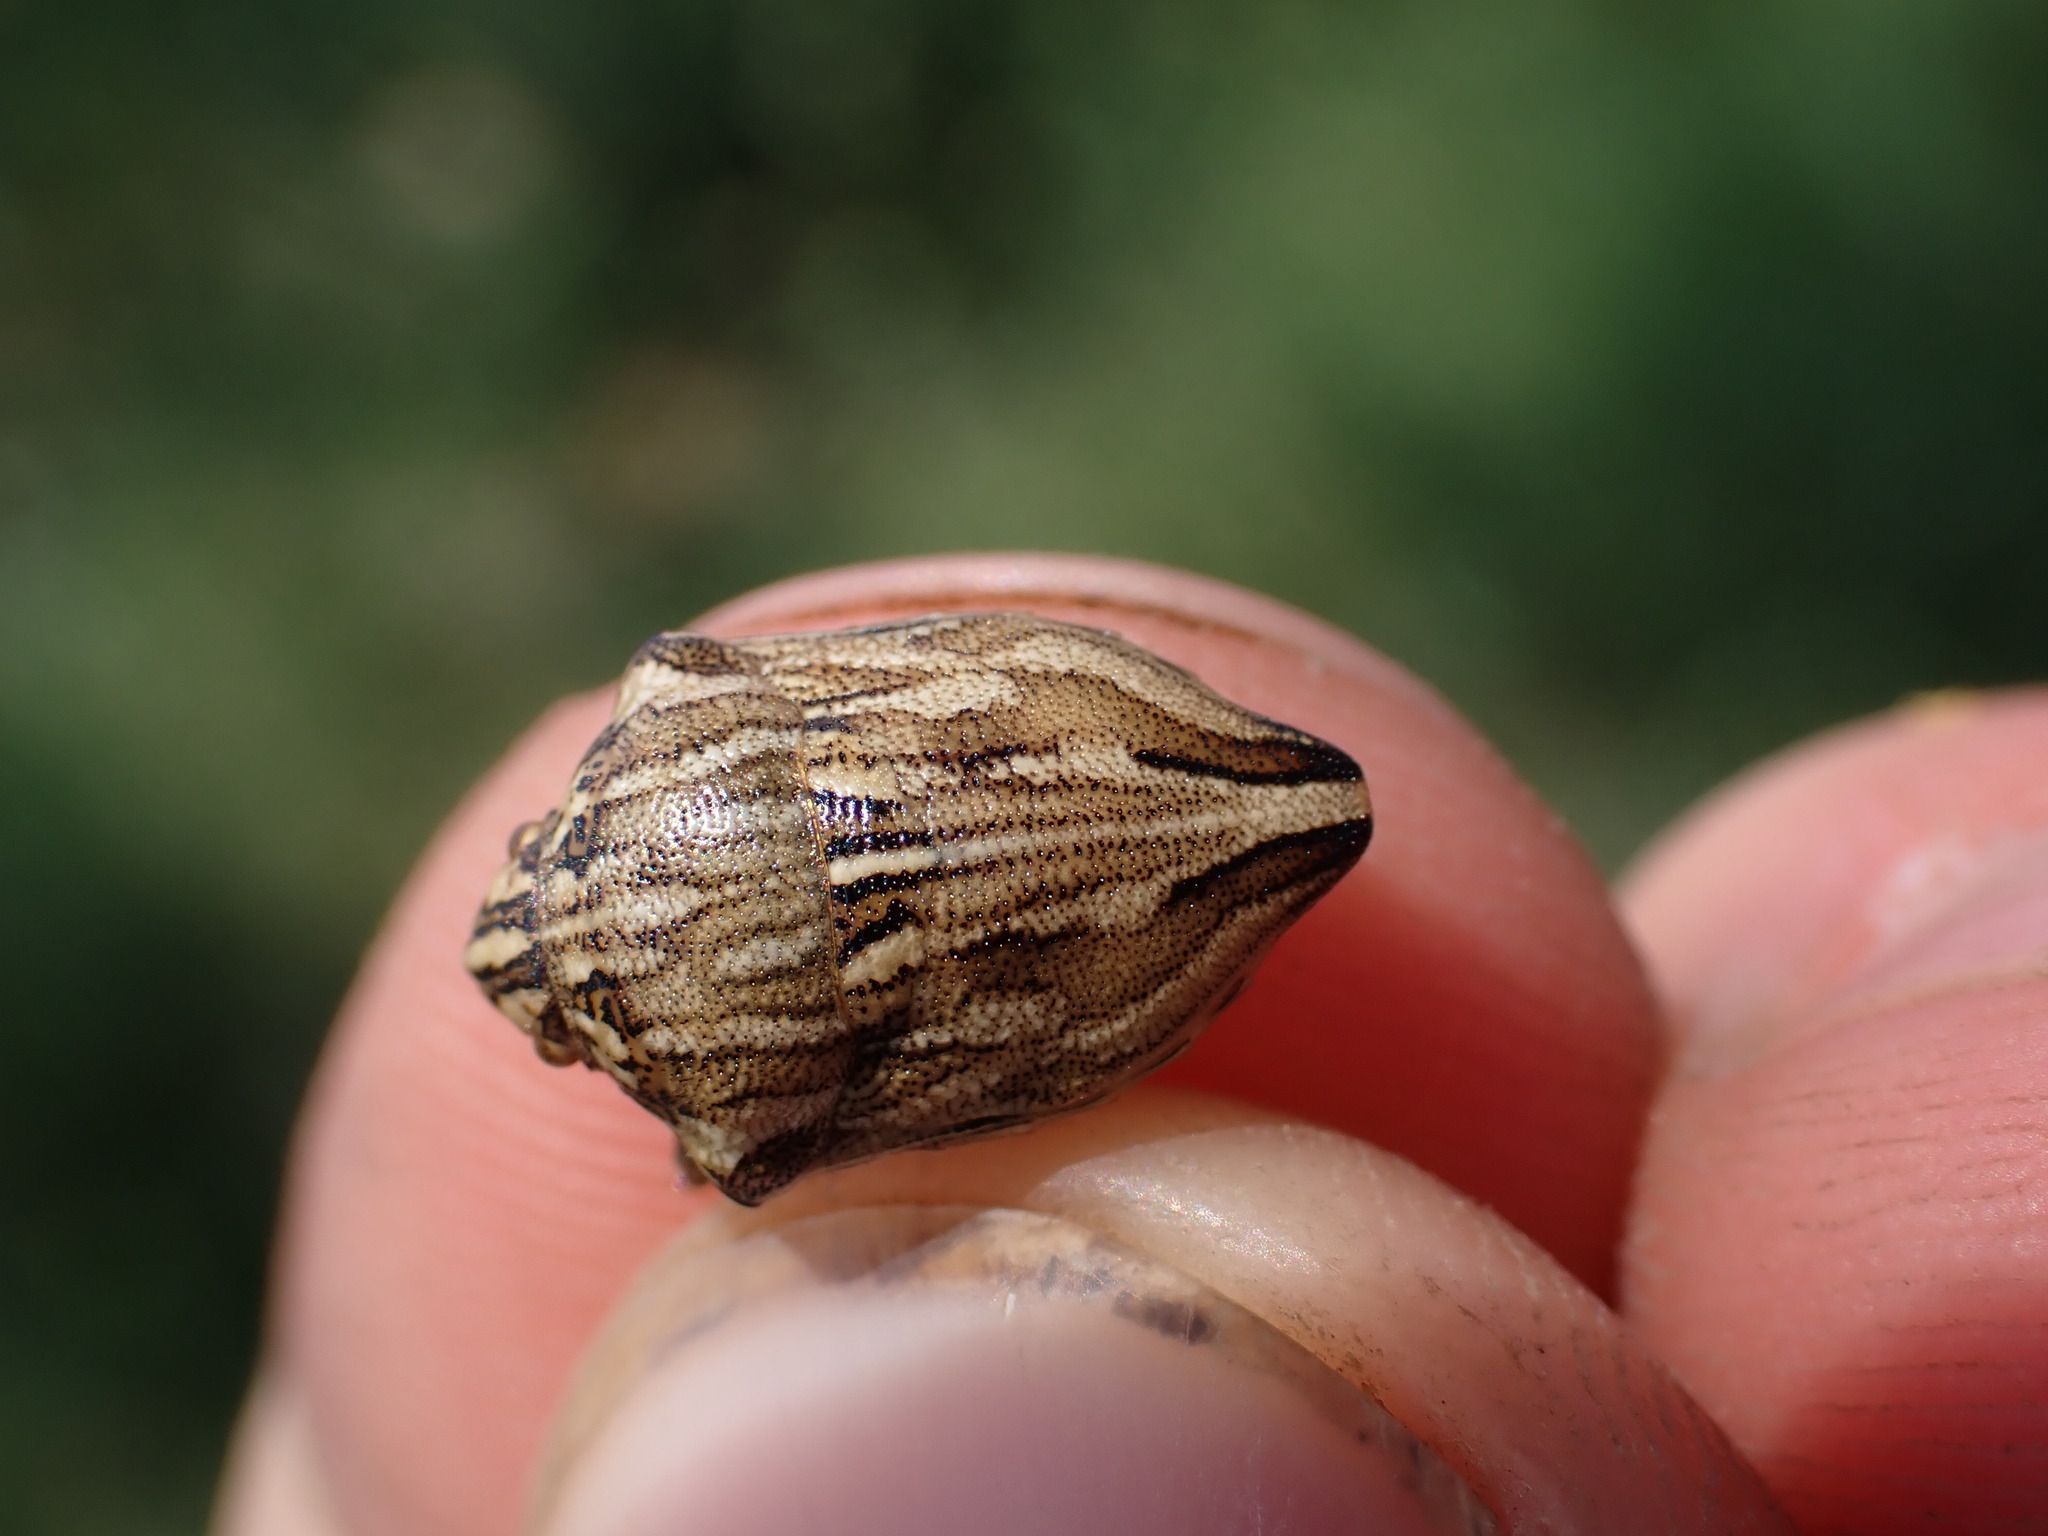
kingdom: Animalia
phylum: Arthropoda
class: Insecta
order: Hemiptera
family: Scutelleridae
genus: Odontotarsus
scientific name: Odontotarsus robustus
